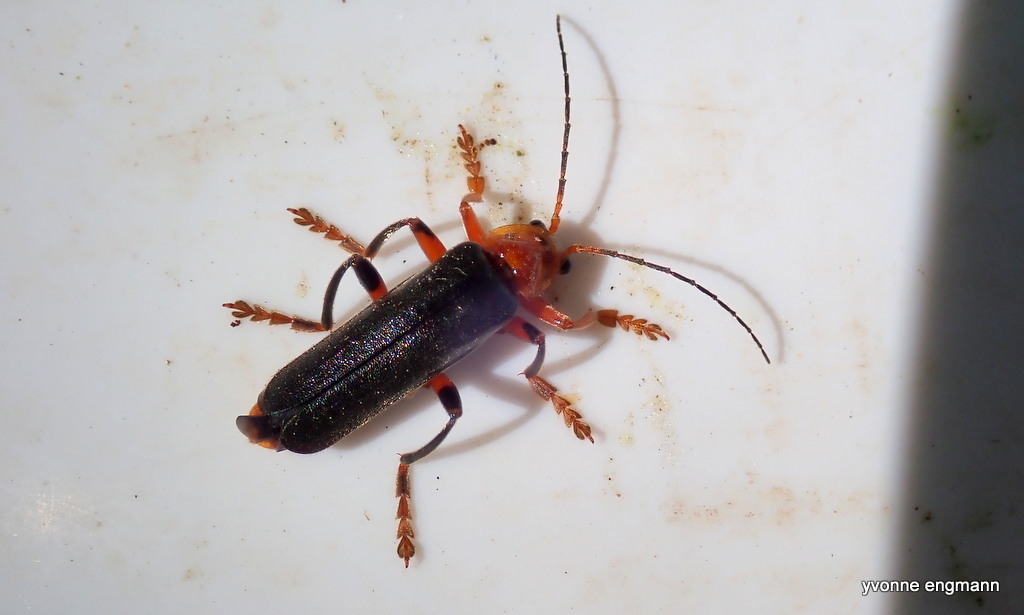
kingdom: Animalia
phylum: Arthropoda
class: Insecta
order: Coleoptera
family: Cantharidae
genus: Cantharis
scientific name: Cantharis livida
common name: Livid soldier beetle
